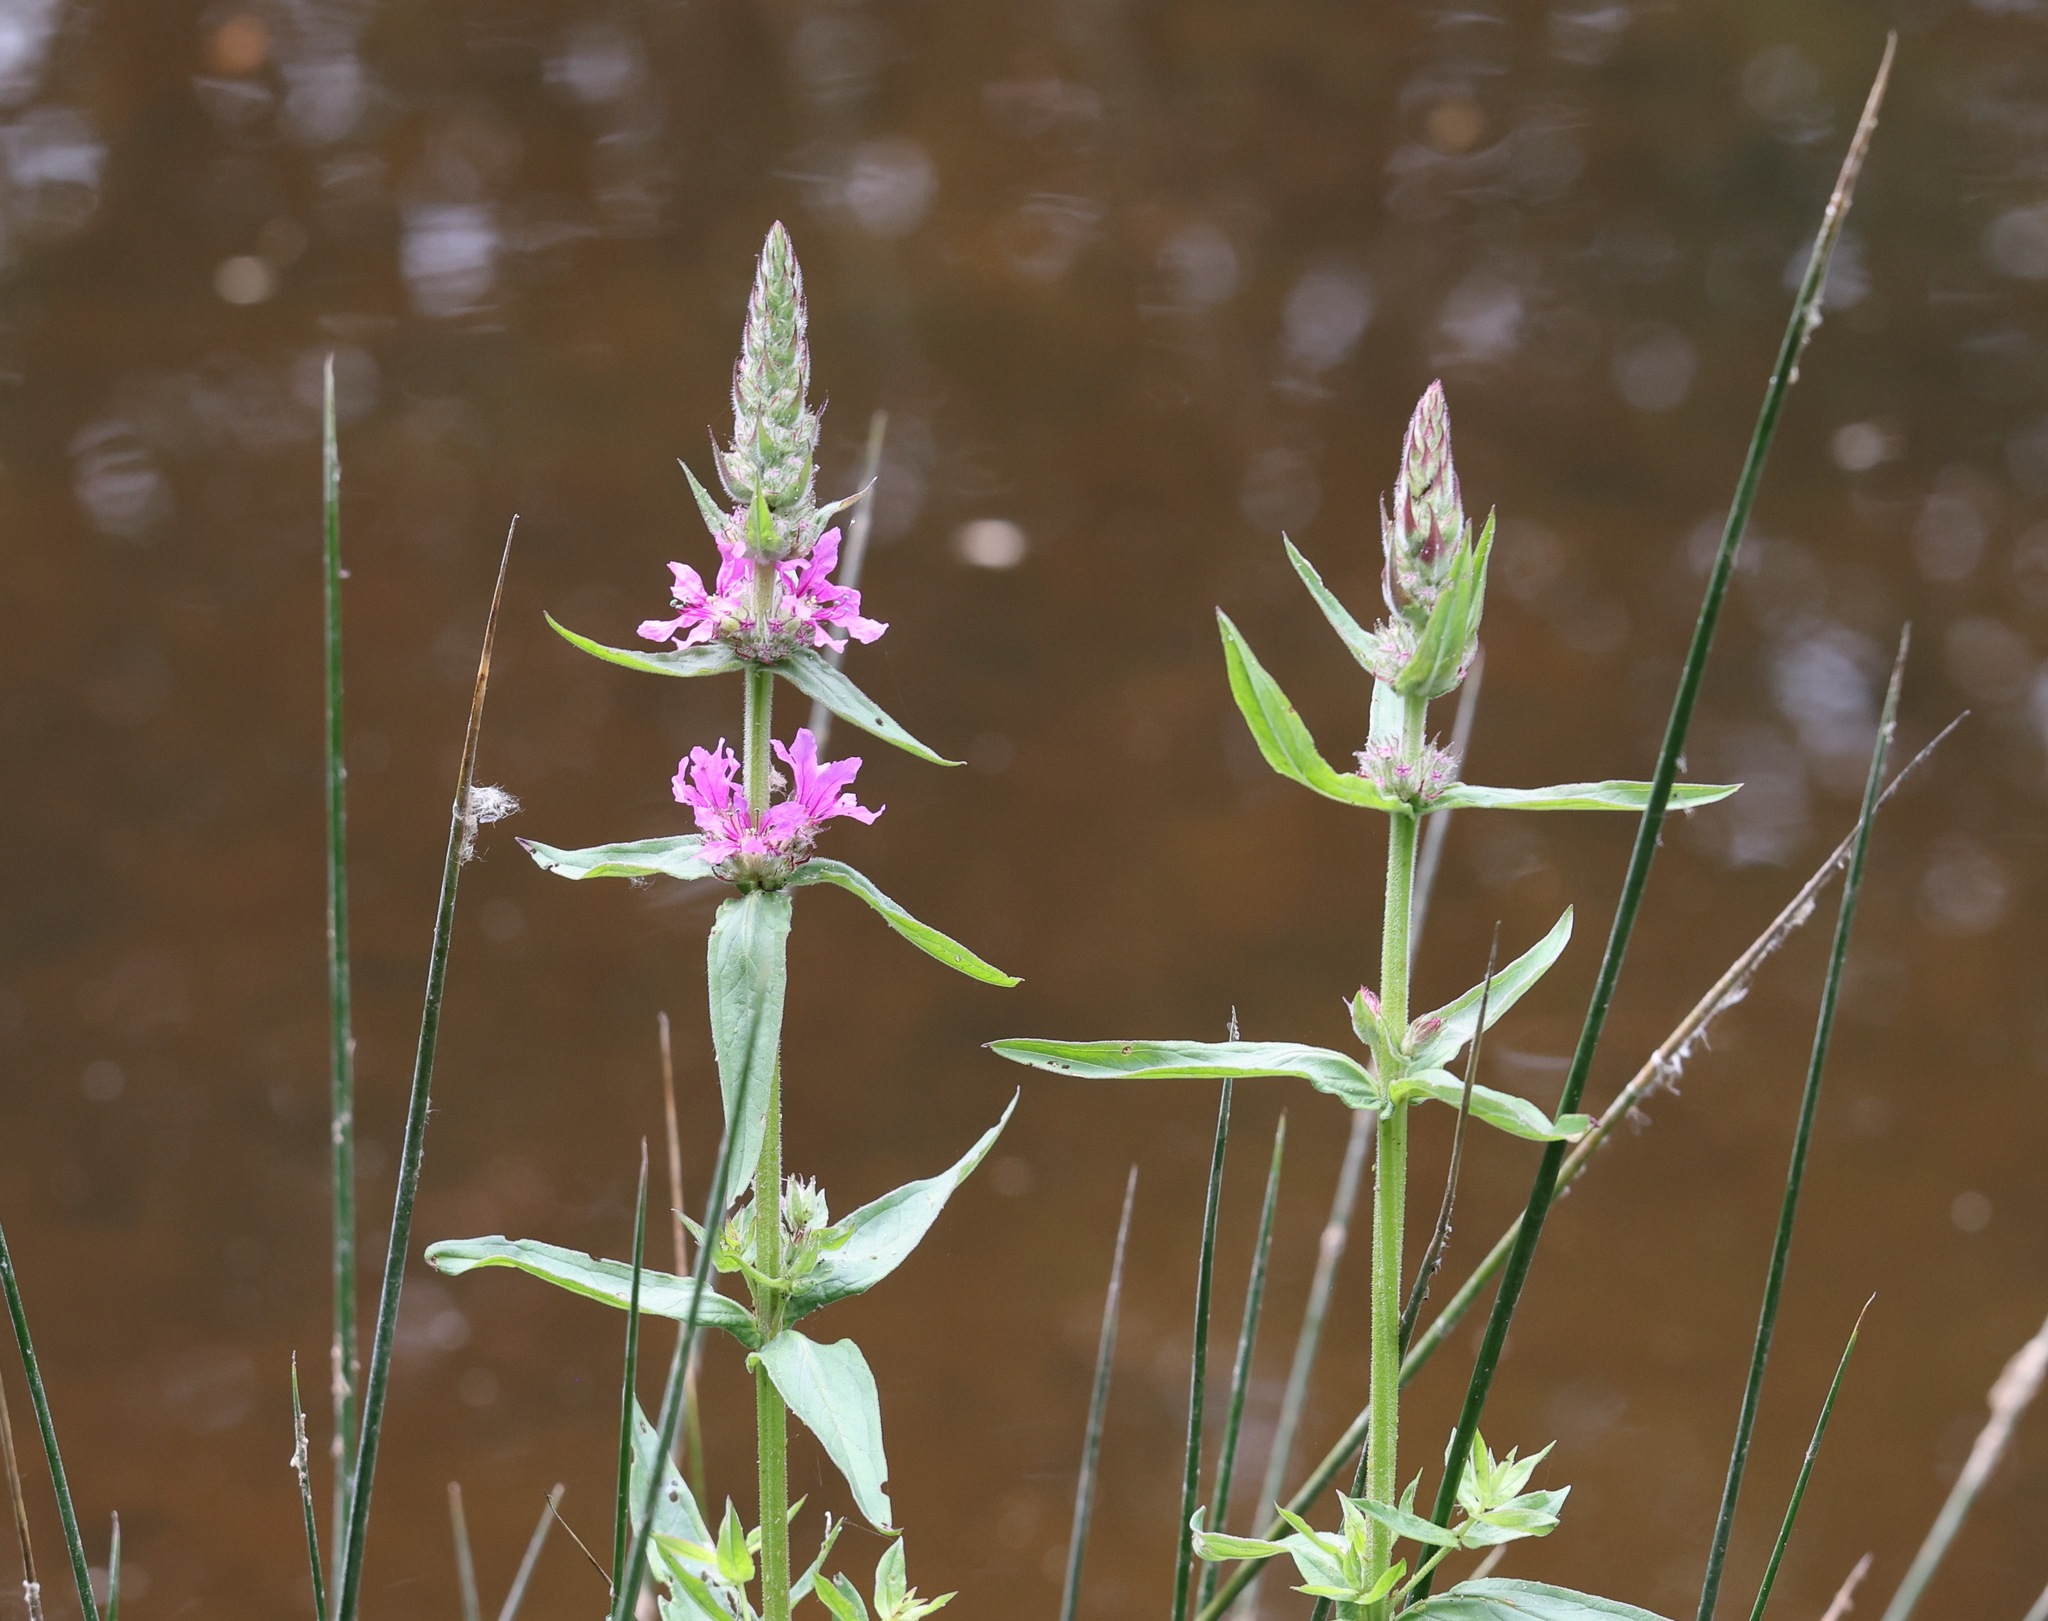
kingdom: Plantae
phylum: Tracheophyta
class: Magnoliopsida
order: Myrtales
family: Lythraceae
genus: Lythrum
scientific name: Lythrum salicaria
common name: Purple loosestrife
